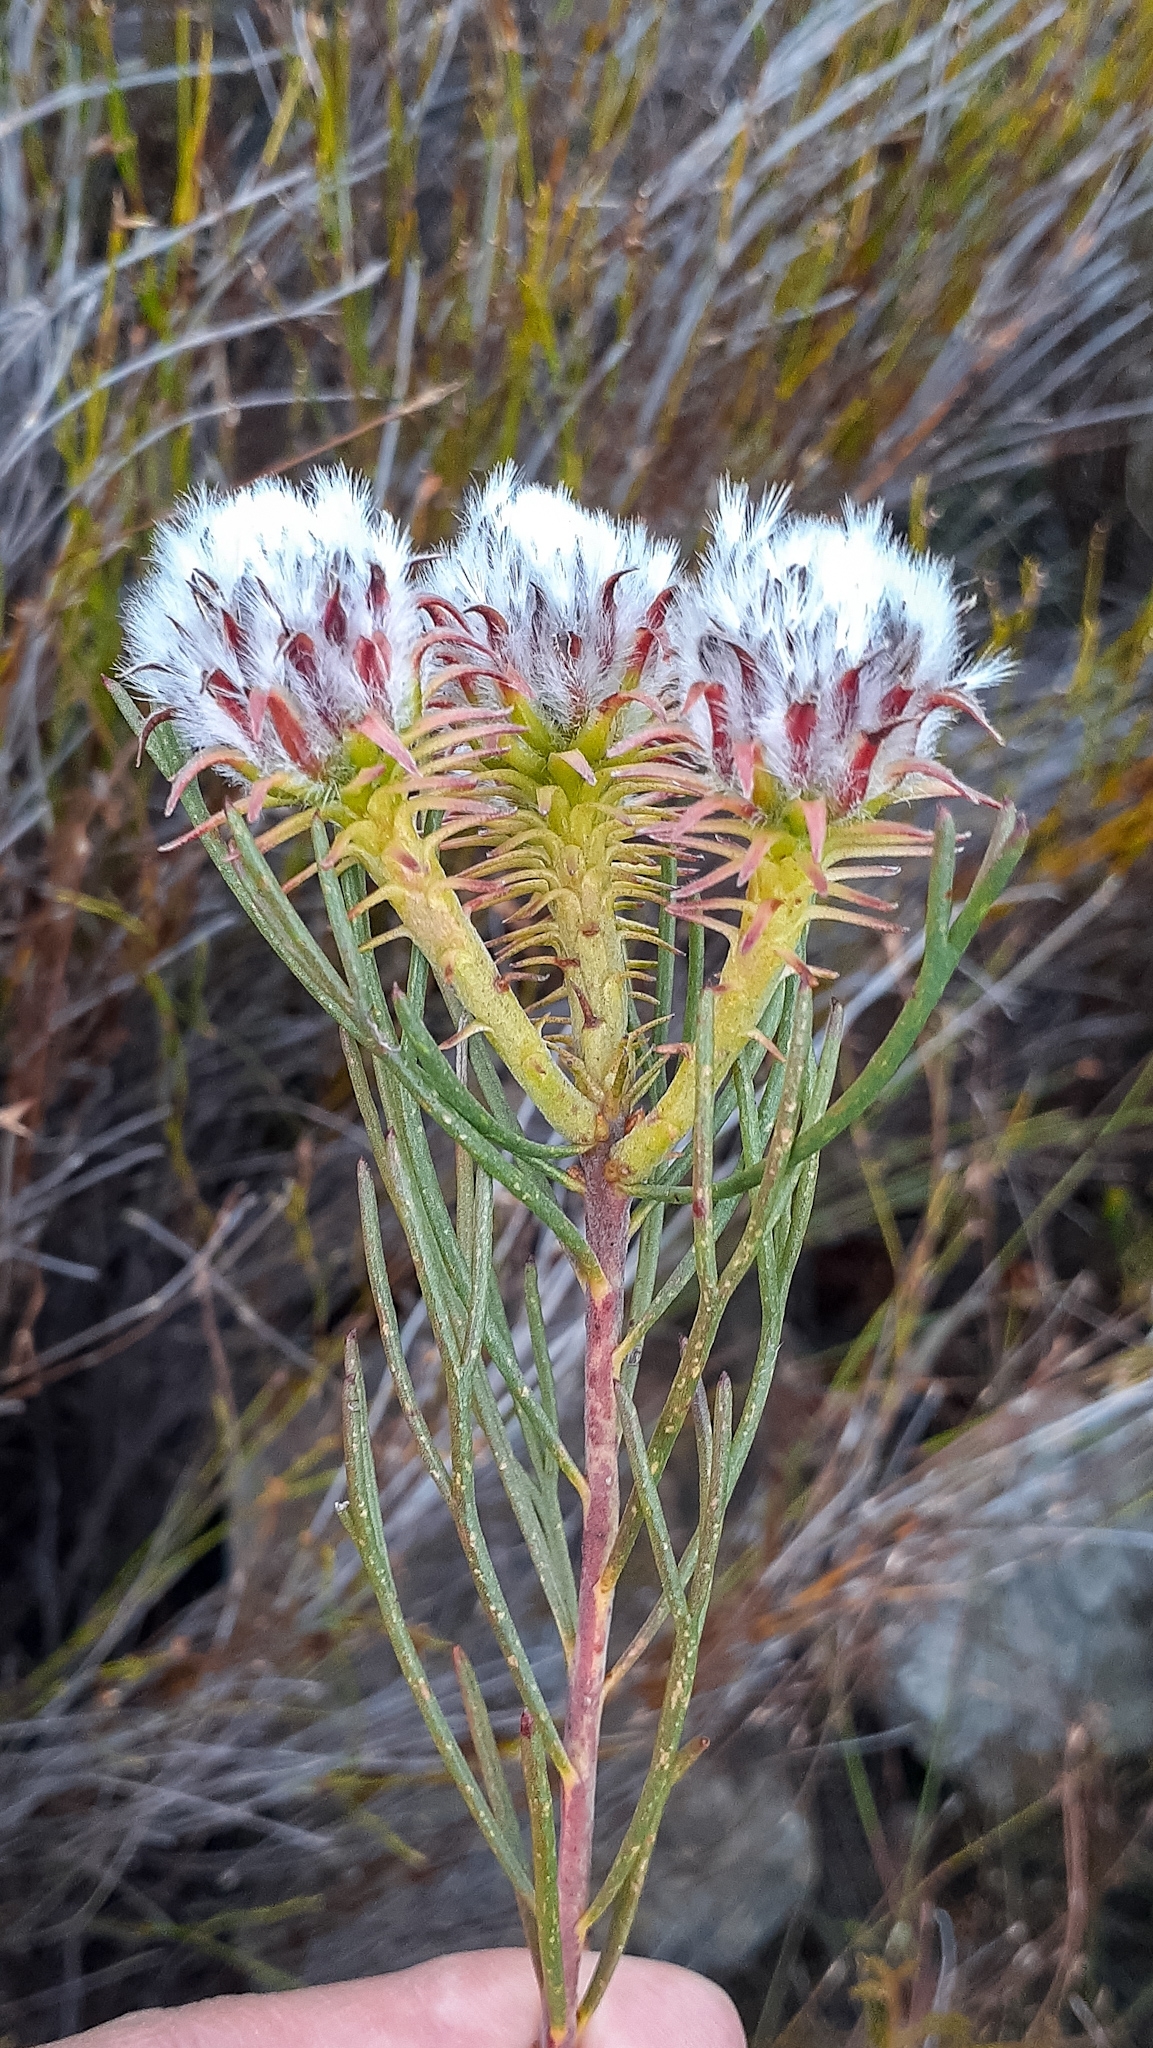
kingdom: Plantae
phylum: Tracheophyta
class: Magnoliopsida
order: Proteales
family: Proteaceae
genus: Serruria
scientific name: Serruria phylicoides
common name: Bearded spiderhead
